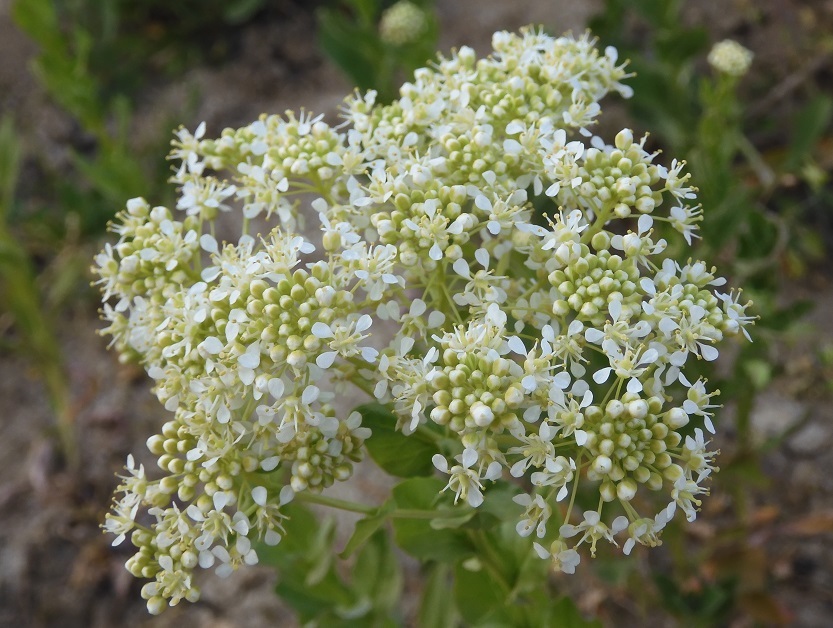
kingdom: Plantae
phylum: Tracheophyta
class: Magnoliopsida
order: Brassicales
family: Brassicaceae
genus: Lepidium
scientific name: Lepidium draba
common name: Hoary cress
